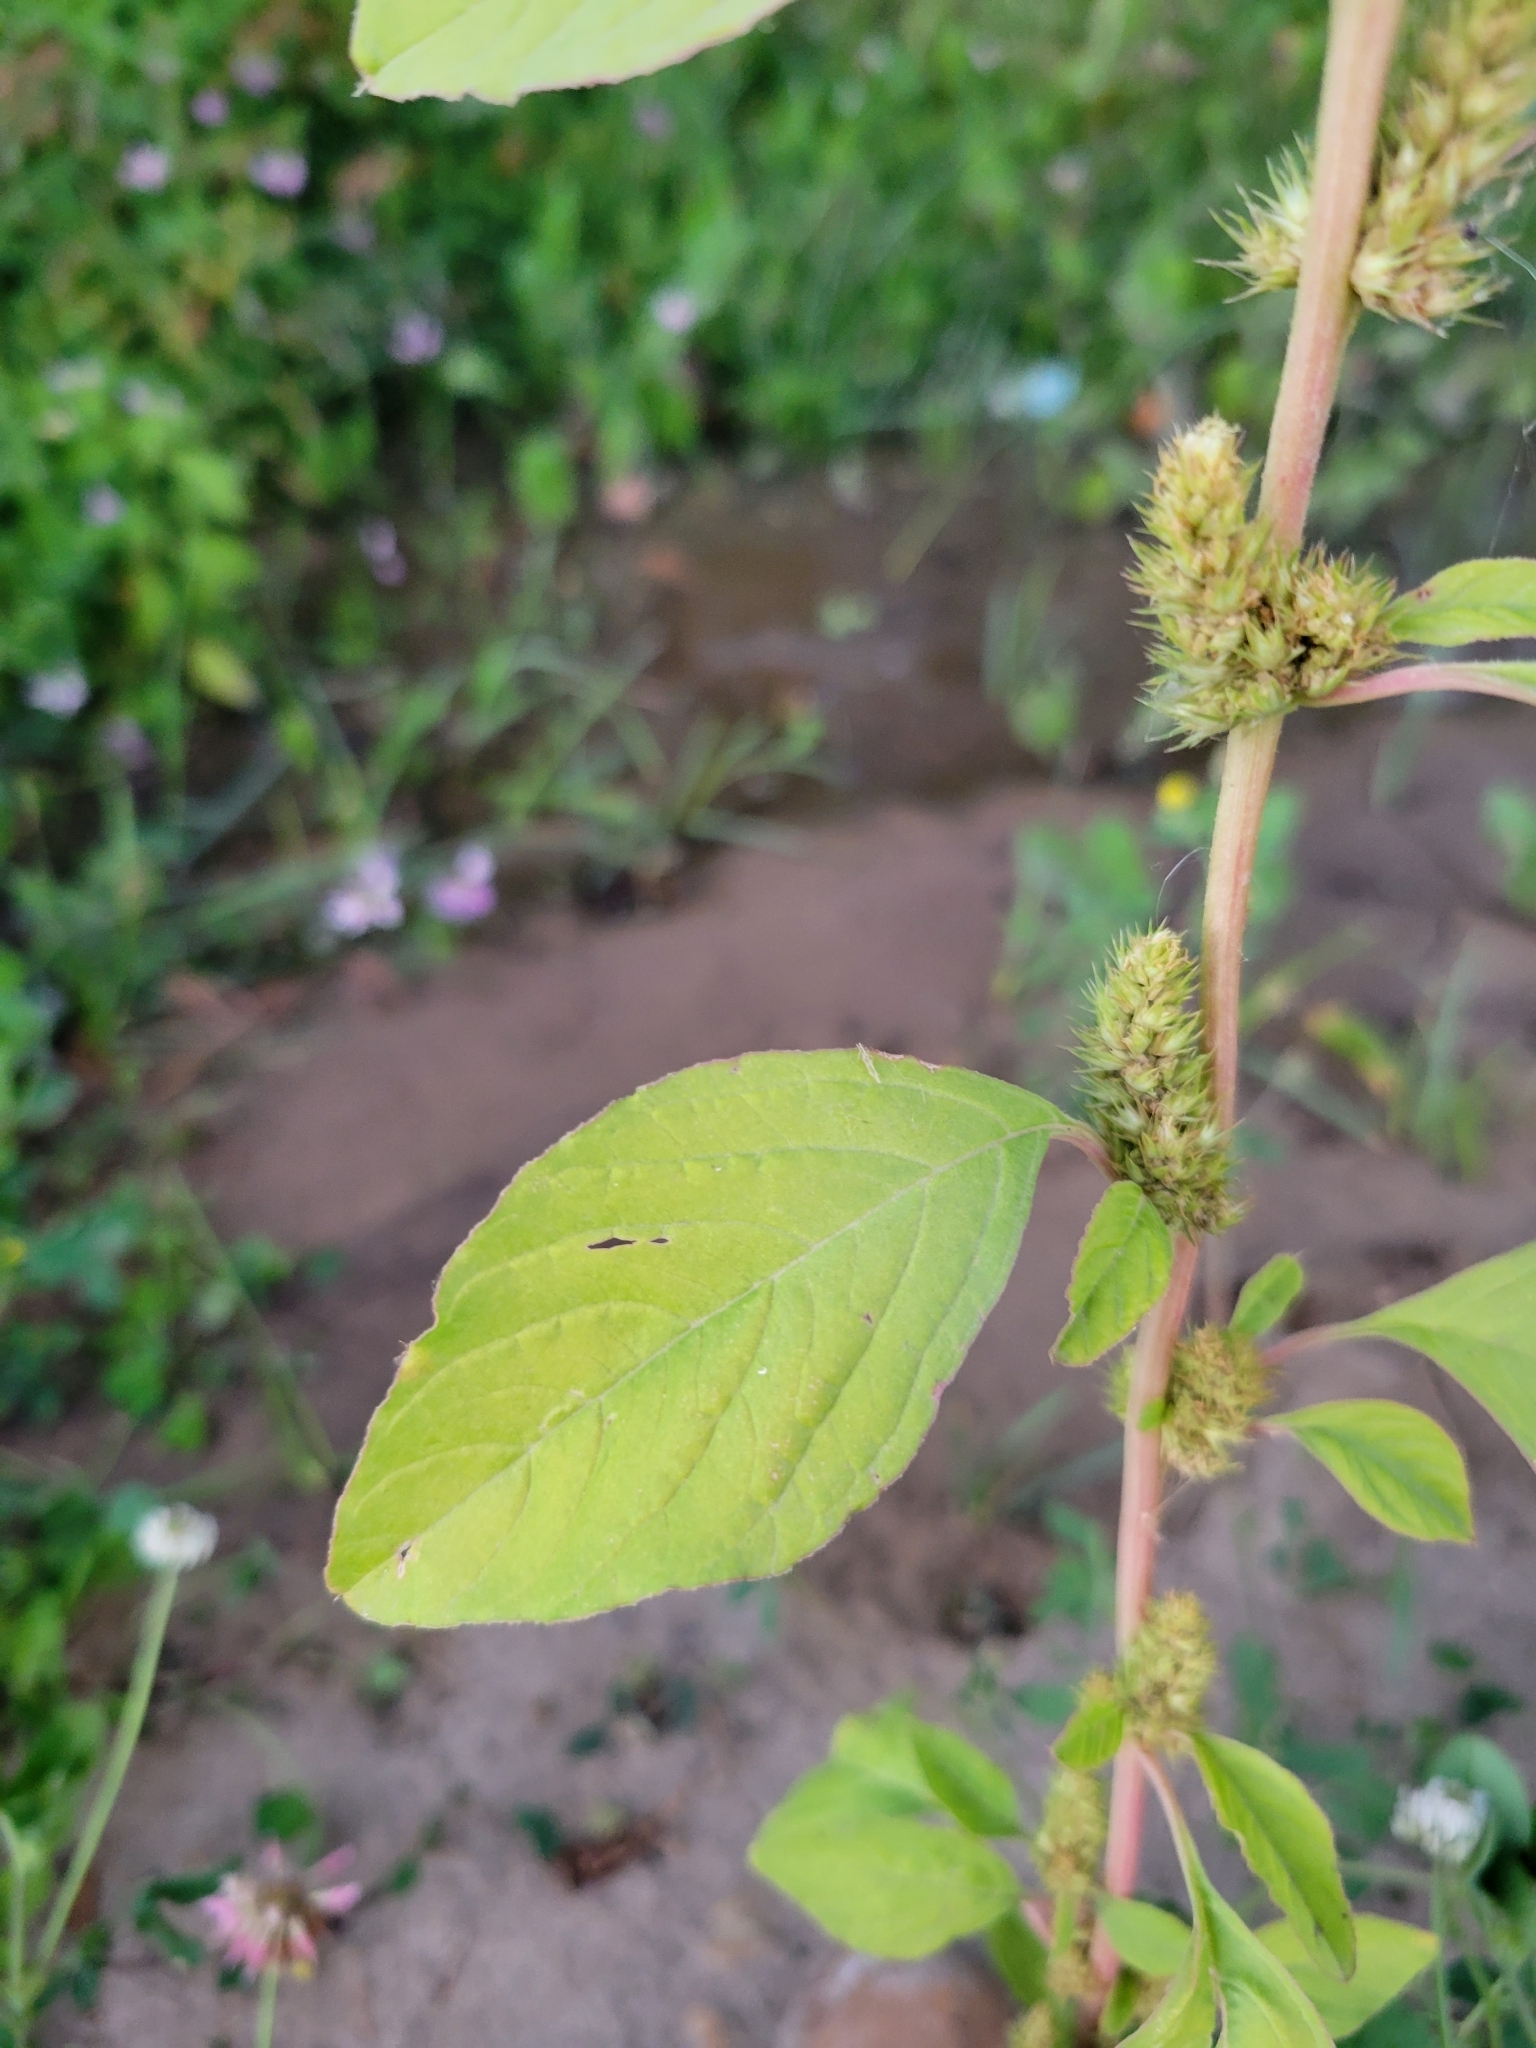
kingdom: Plantae
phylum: Tracheophyta
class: Magnoliopsida
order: Caryophyllales
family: Amaranthaceae
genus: Amaranthus
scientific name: Amaranthus retroflexus
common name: Redroot amaranth
